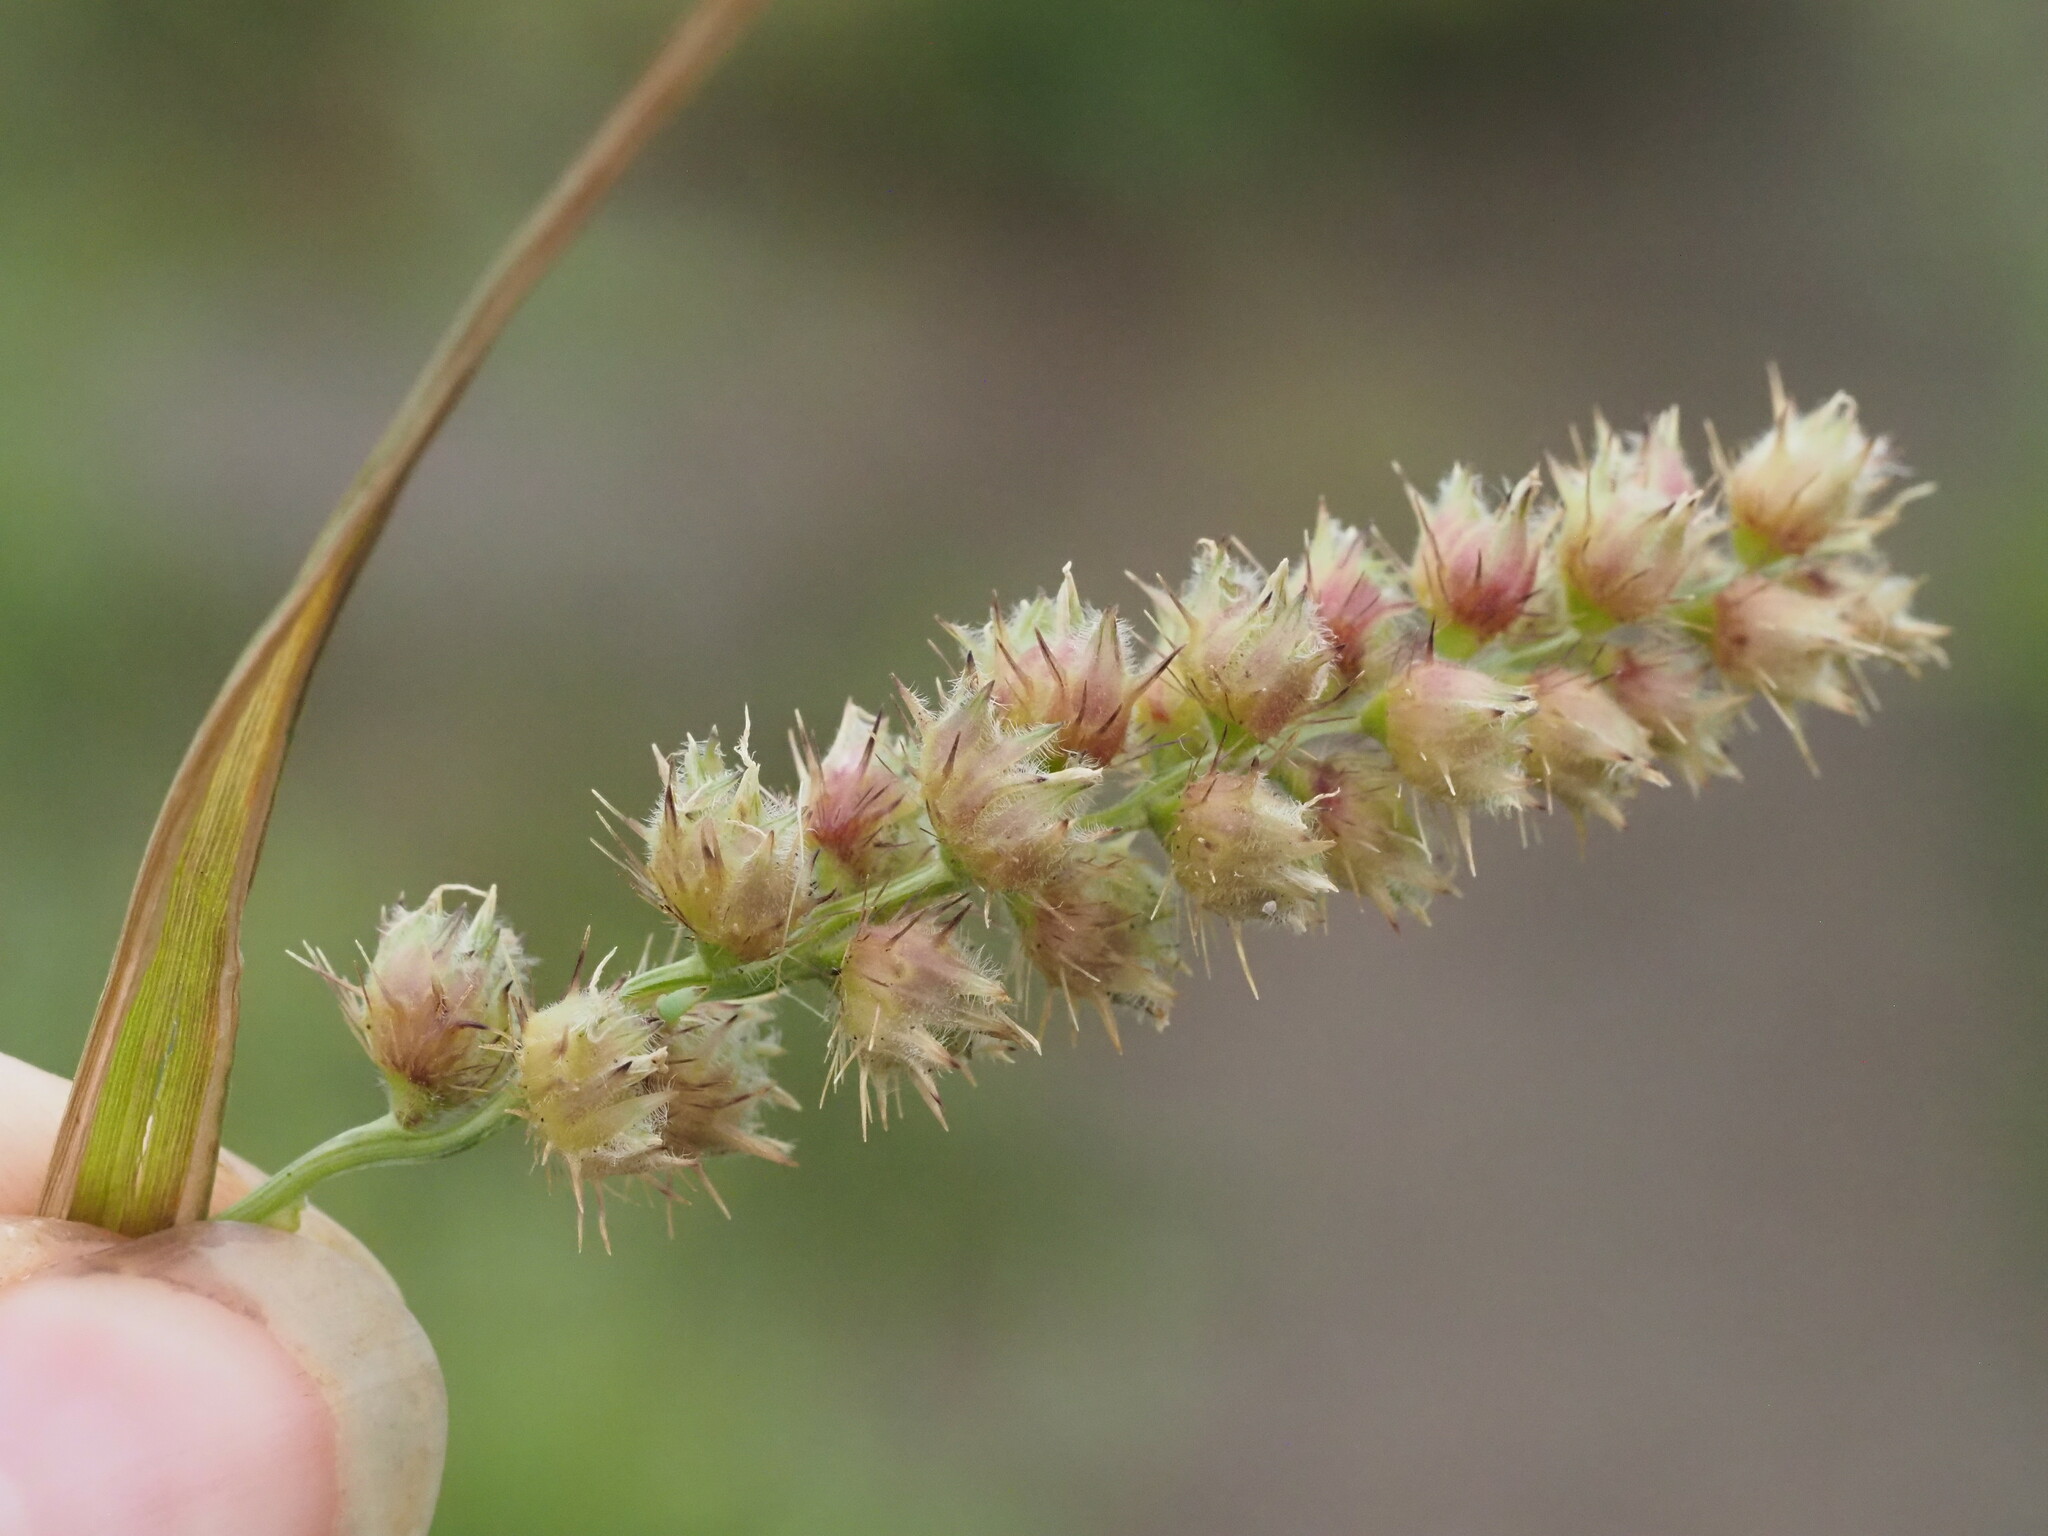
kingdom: Plantae
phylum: Tracheophyta
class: Liliopsida
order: Poales
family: Poaceae
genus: Cenchrus
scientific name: Cenchrus echinatus
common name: Southern sandbur
